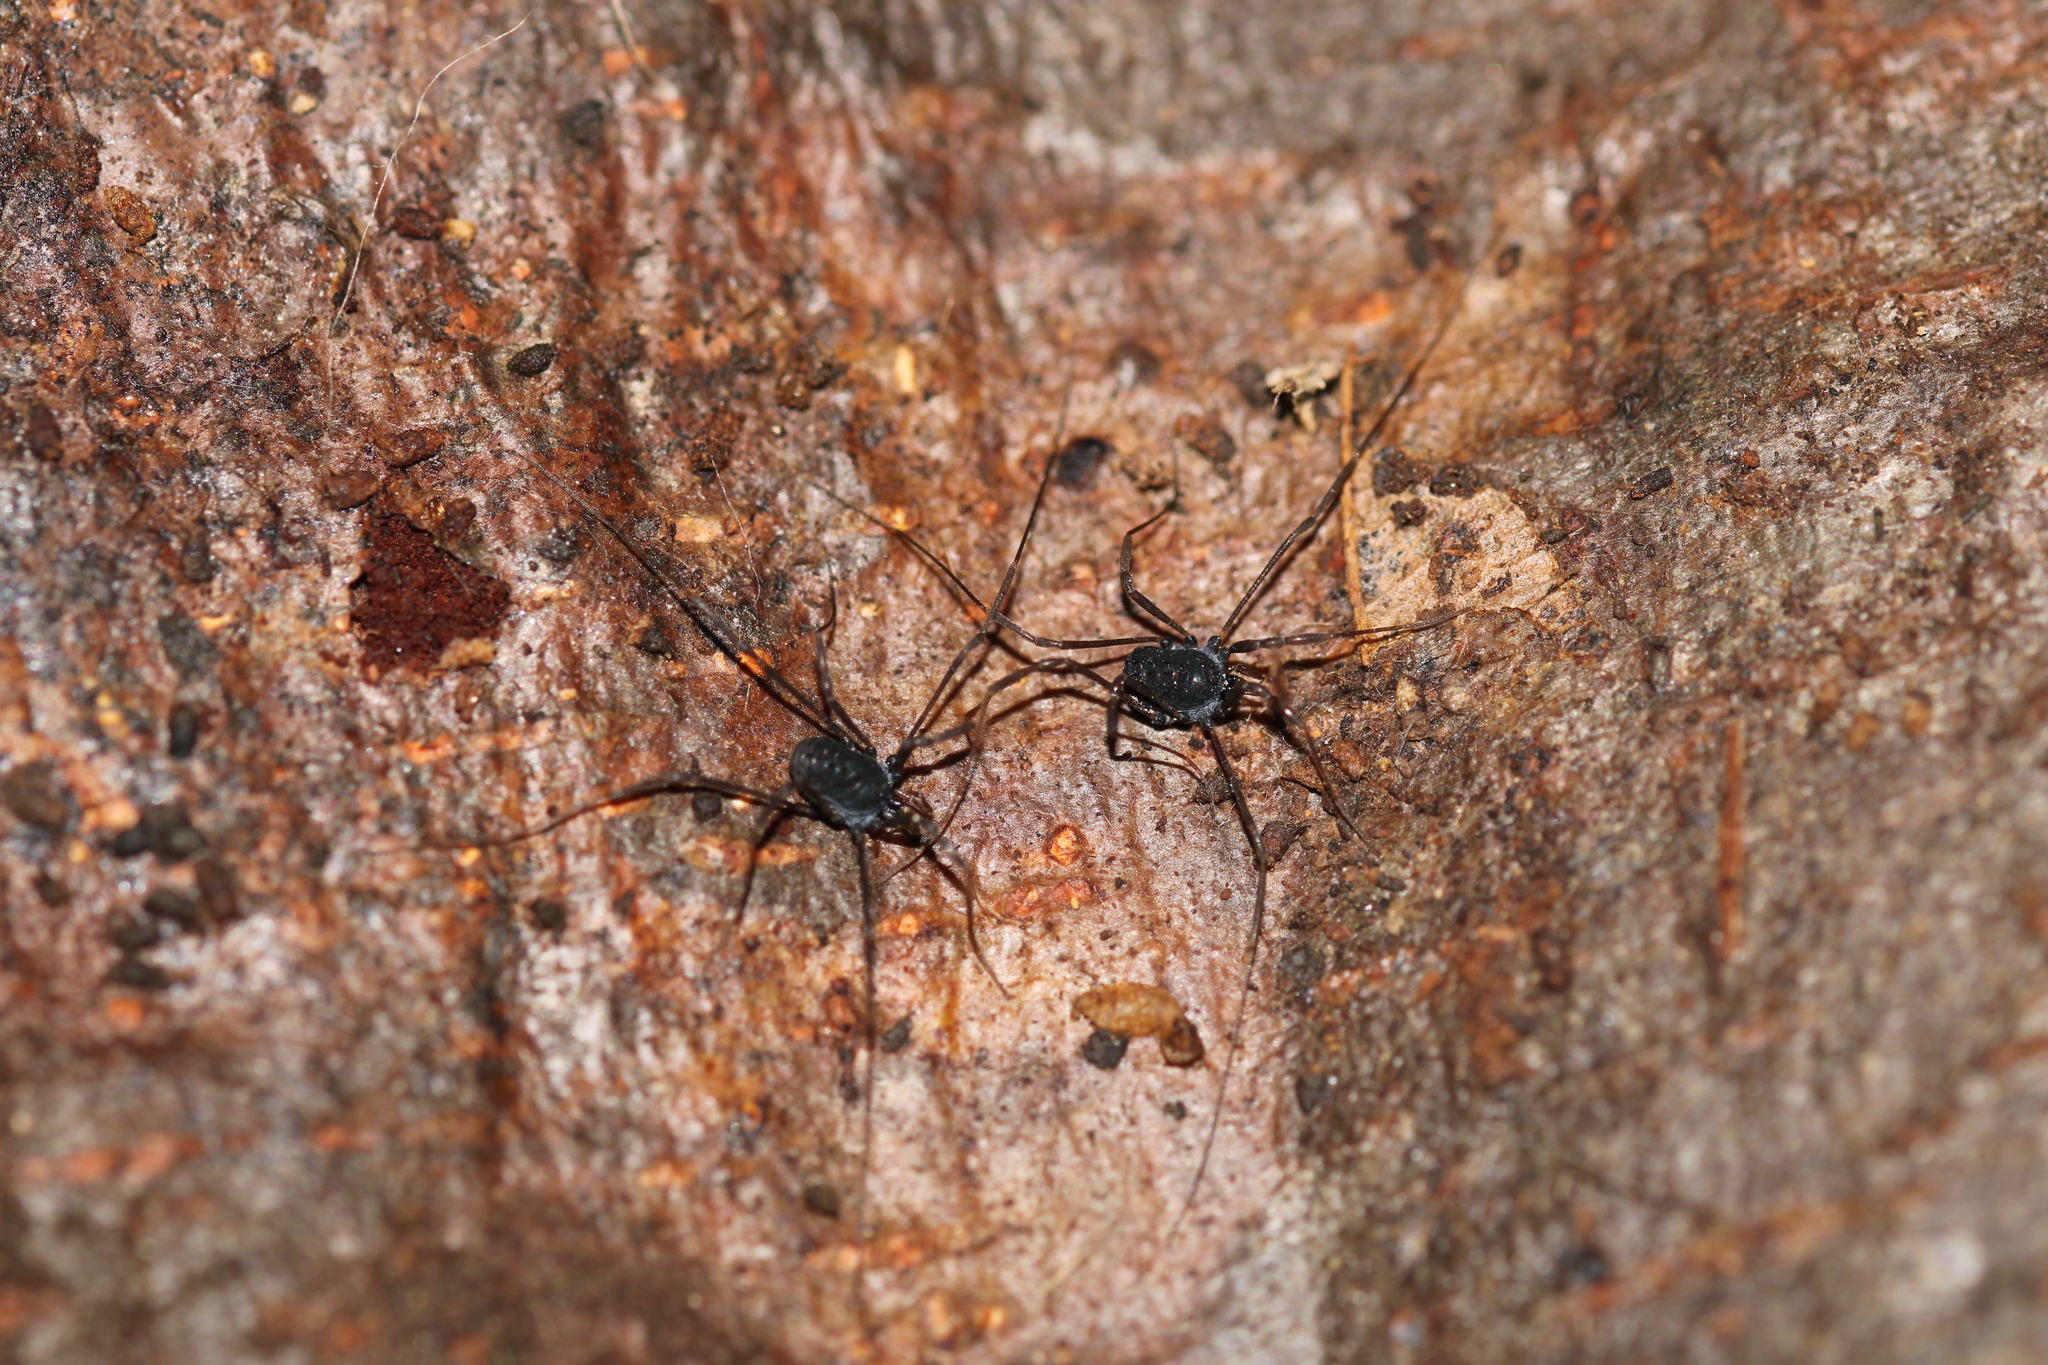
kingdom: Animalia
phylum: Arthropoda
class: Arachnida
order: Opiliones
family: Nemastomatidae
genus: Histricostoma
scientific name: Histricostoma dentipalpe
